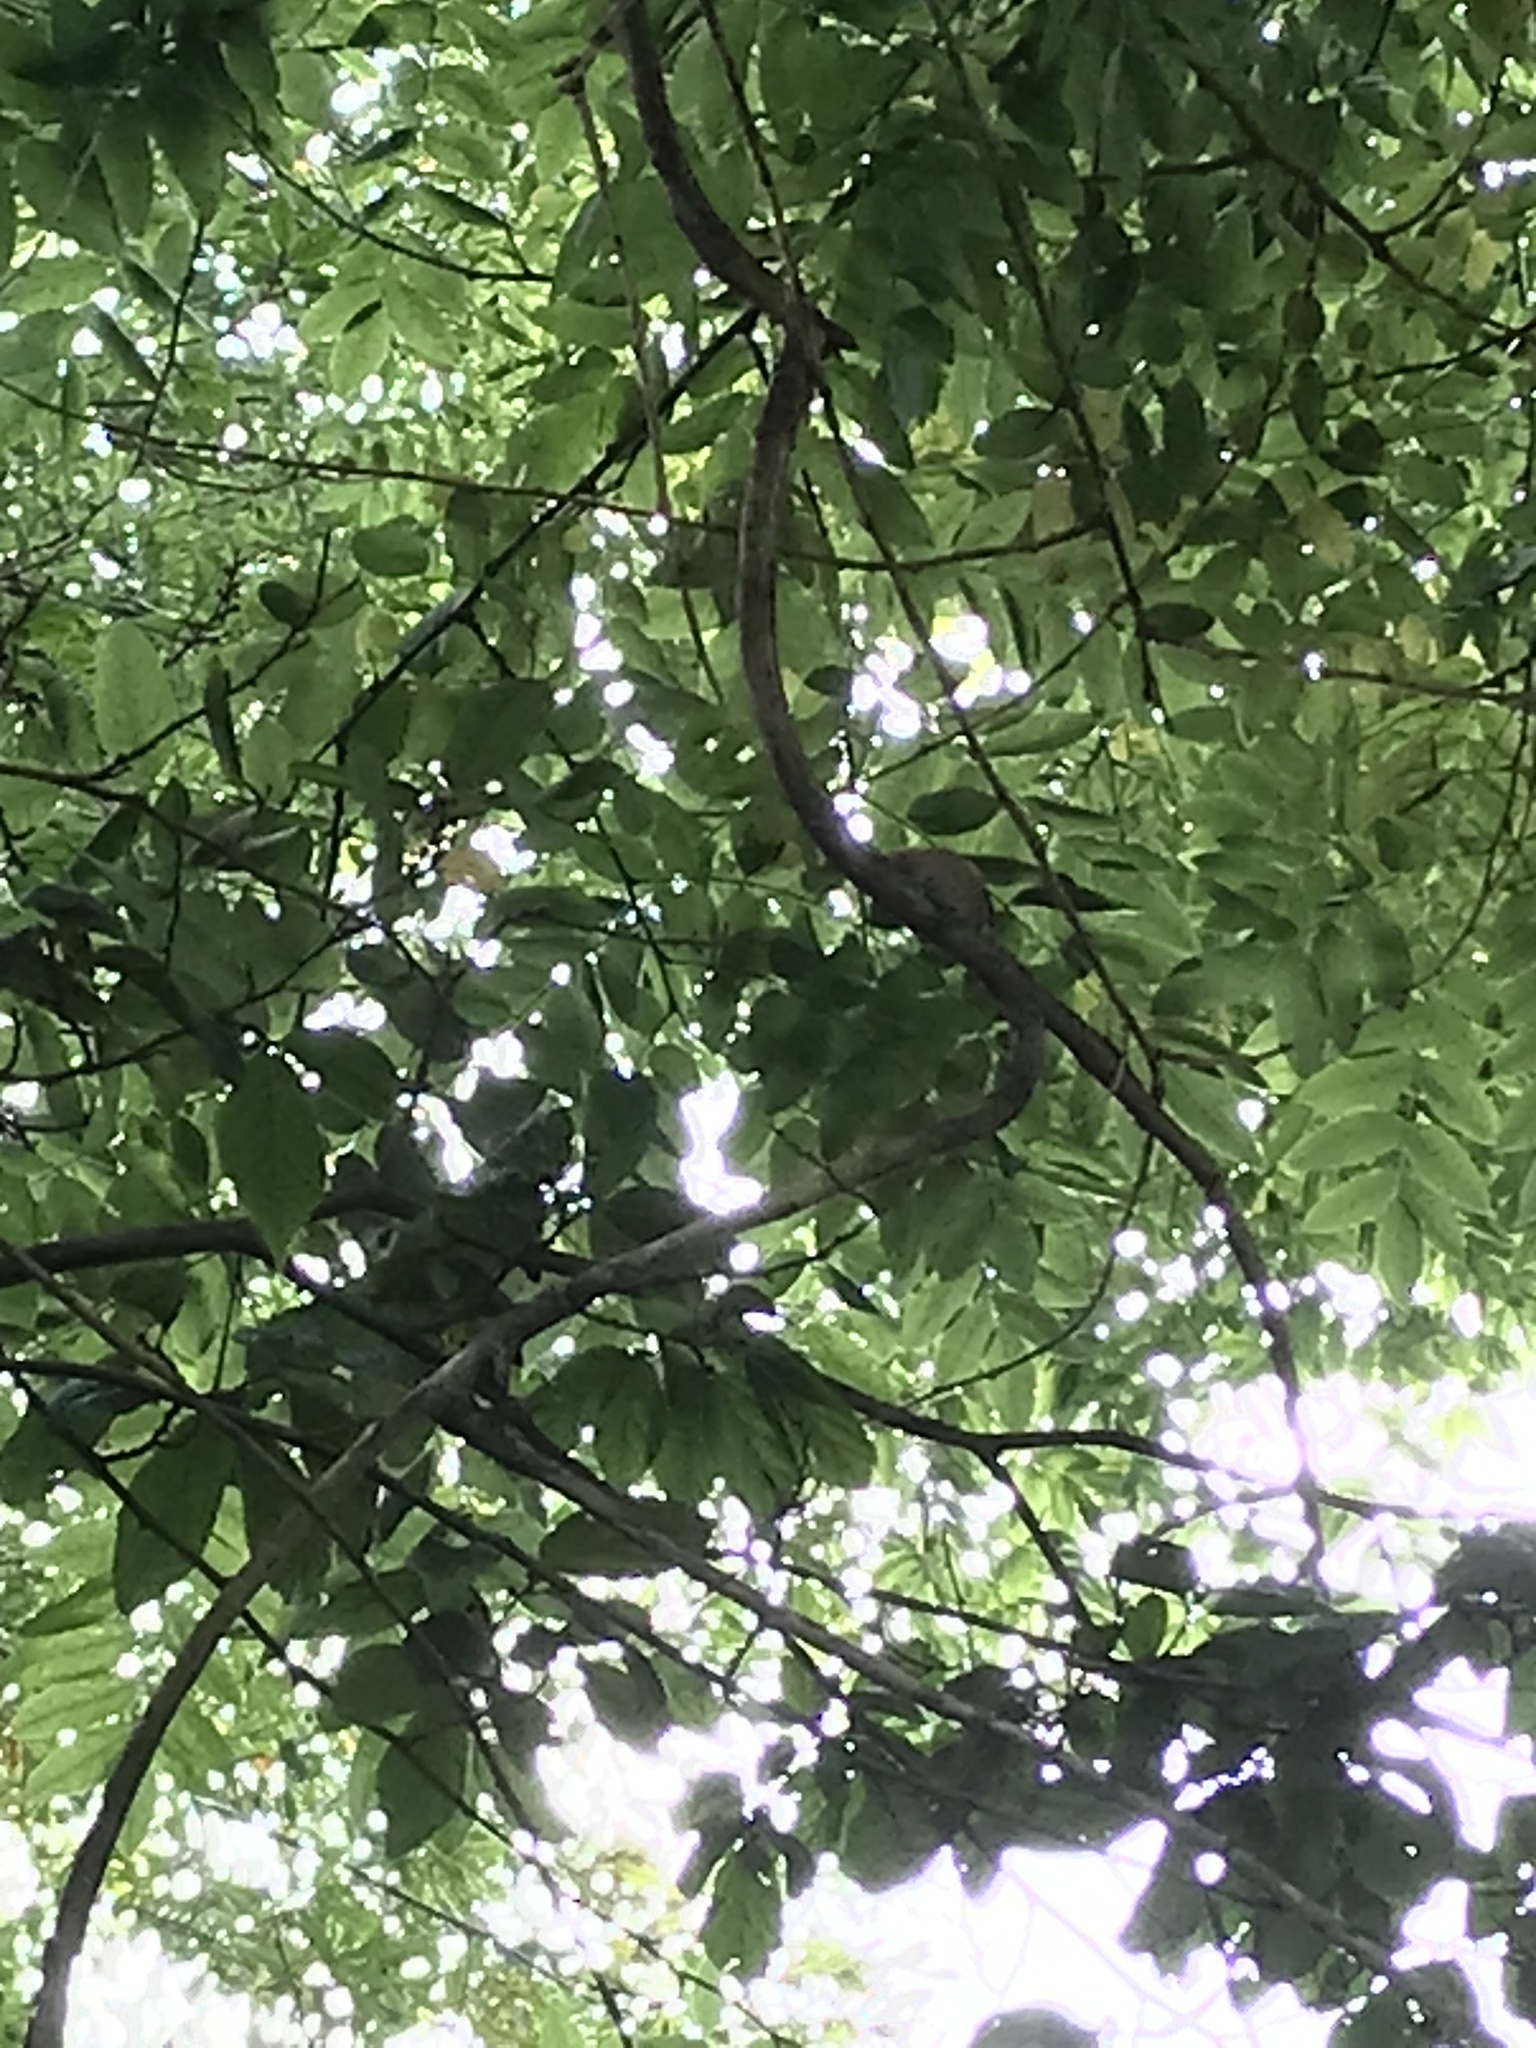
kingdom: Animalia
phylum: Chordata
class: Aves
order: Passeriformes
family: Troglodytidae
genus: Troglodytes
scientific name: Troglodytes troglodytes
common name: Eurasian wren
